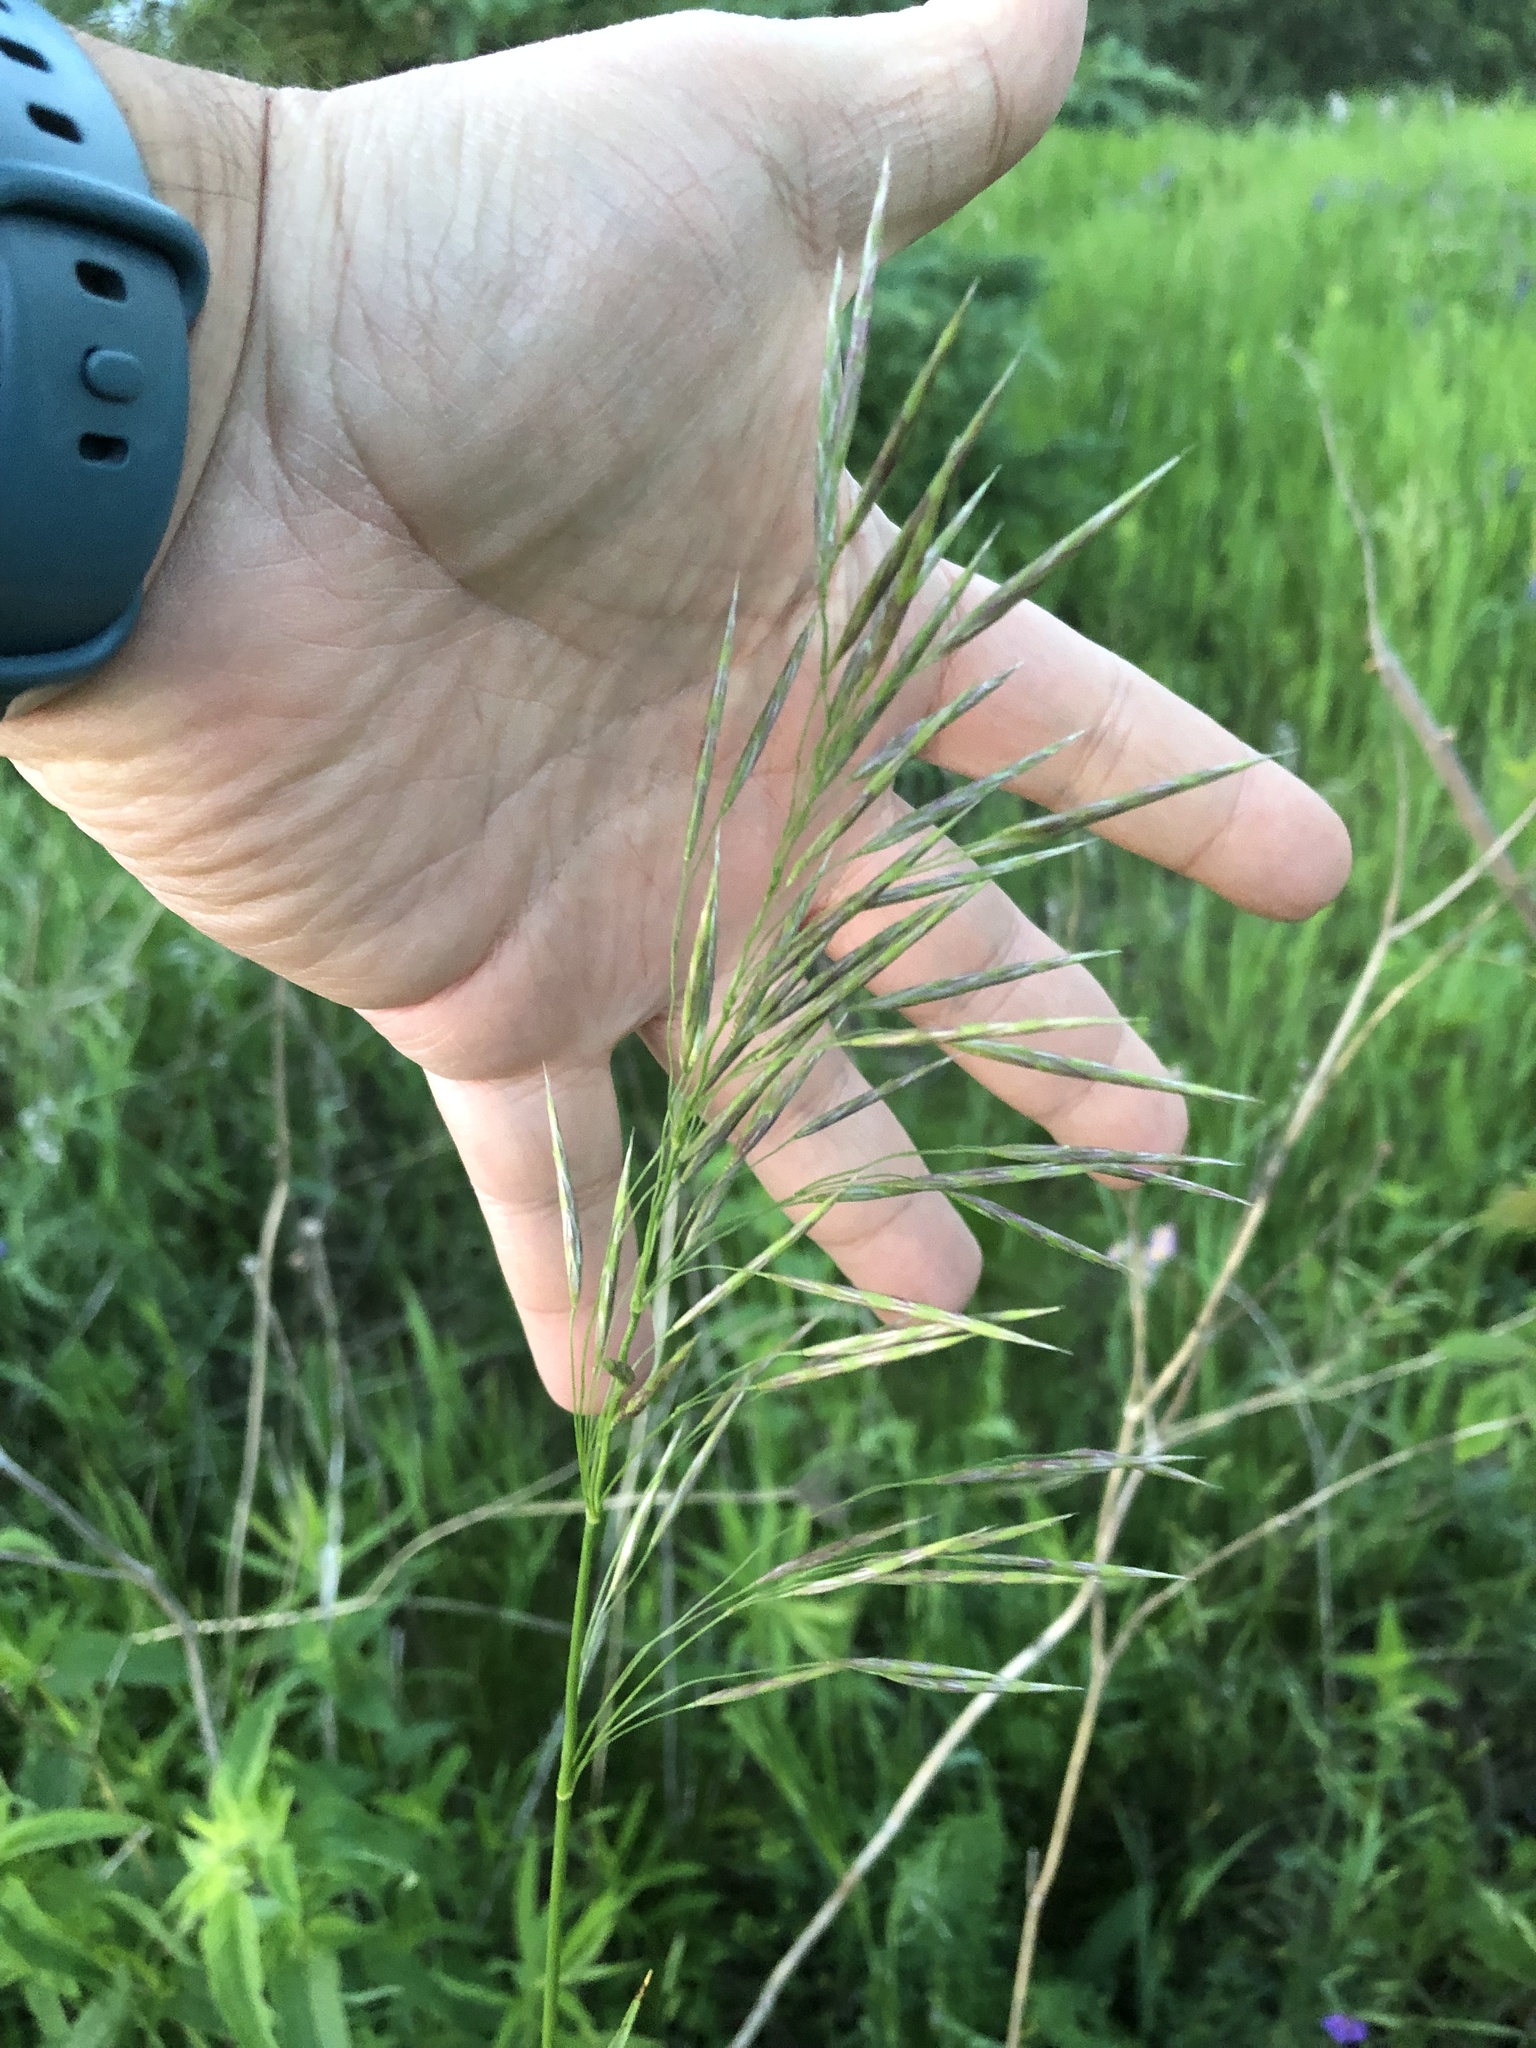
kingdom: Plantae
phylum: Tracheophyta
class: Liliopsida
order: Poales
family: Poaceae
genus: Bromus
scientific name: Bromus inermis
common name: Smooth brome
